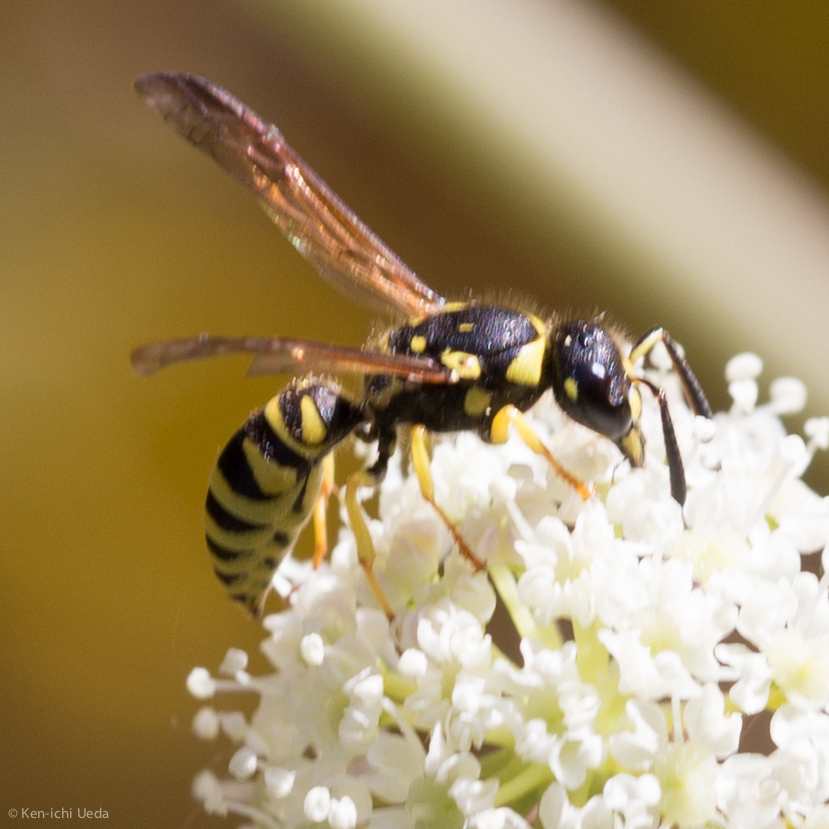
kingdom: Animalia
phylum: Arthropoda
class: Insecta
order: Hymenoptera
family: Vespidae
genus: Ancistrocerus
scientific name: Ancistrocerus adiabatus
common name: Bramble mason wasp
